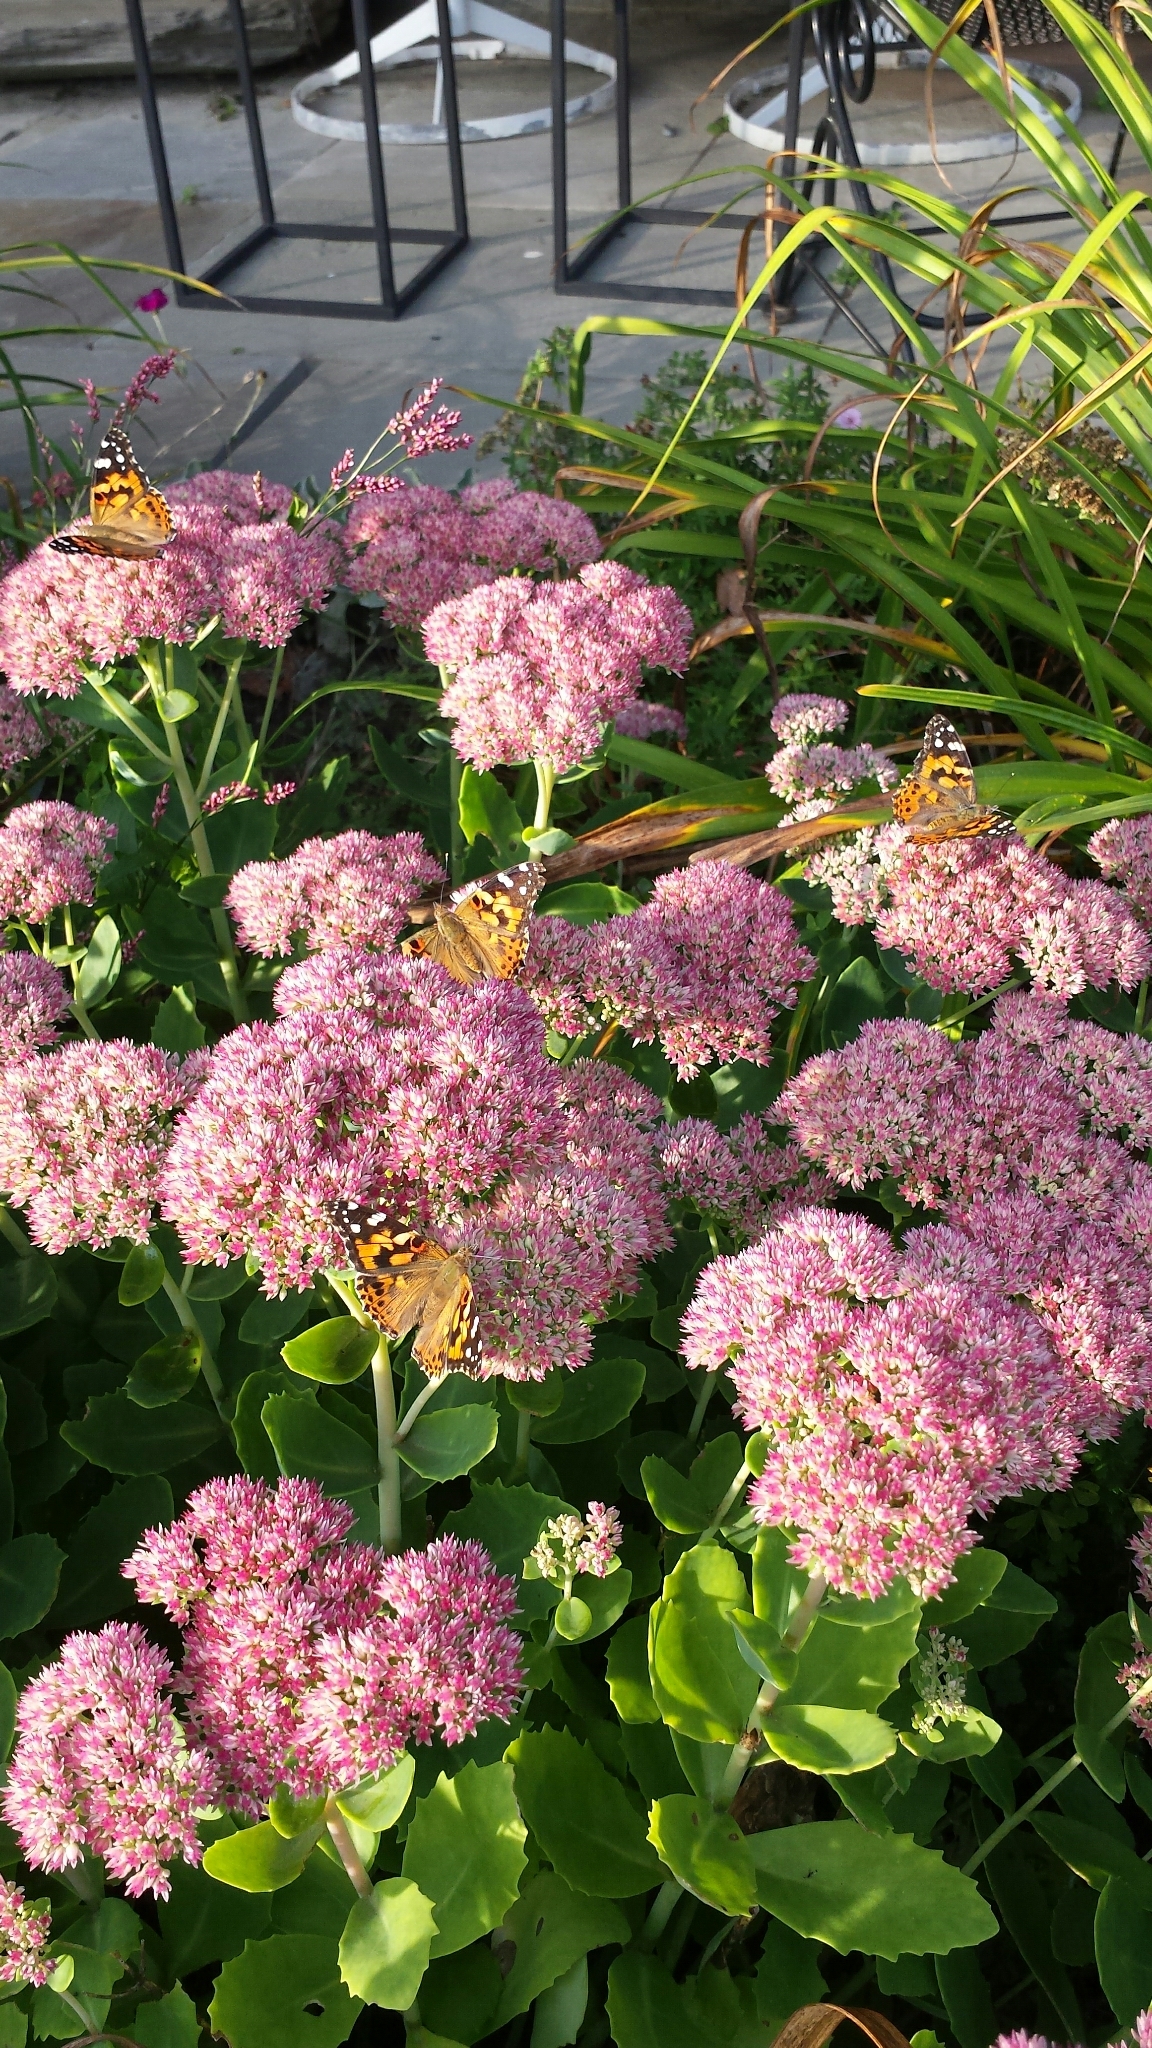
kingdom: Animalia
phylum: Arthropoda
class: Insecta
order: Lepidoptera
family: Nymphalidae
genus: Vanessa
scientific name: Vanessa cardui
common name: Painted lady
